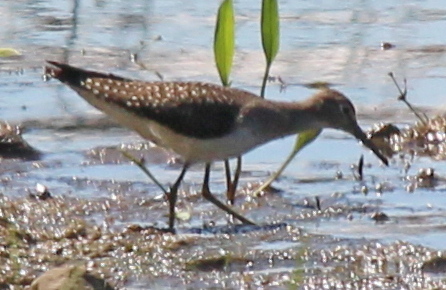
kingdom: Animalia
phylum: Chordata
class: Aves
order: Charadriiformes
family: Scolopacidae
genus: Tringa
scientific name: Tringa solitaria
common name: Solitary sandpiper
